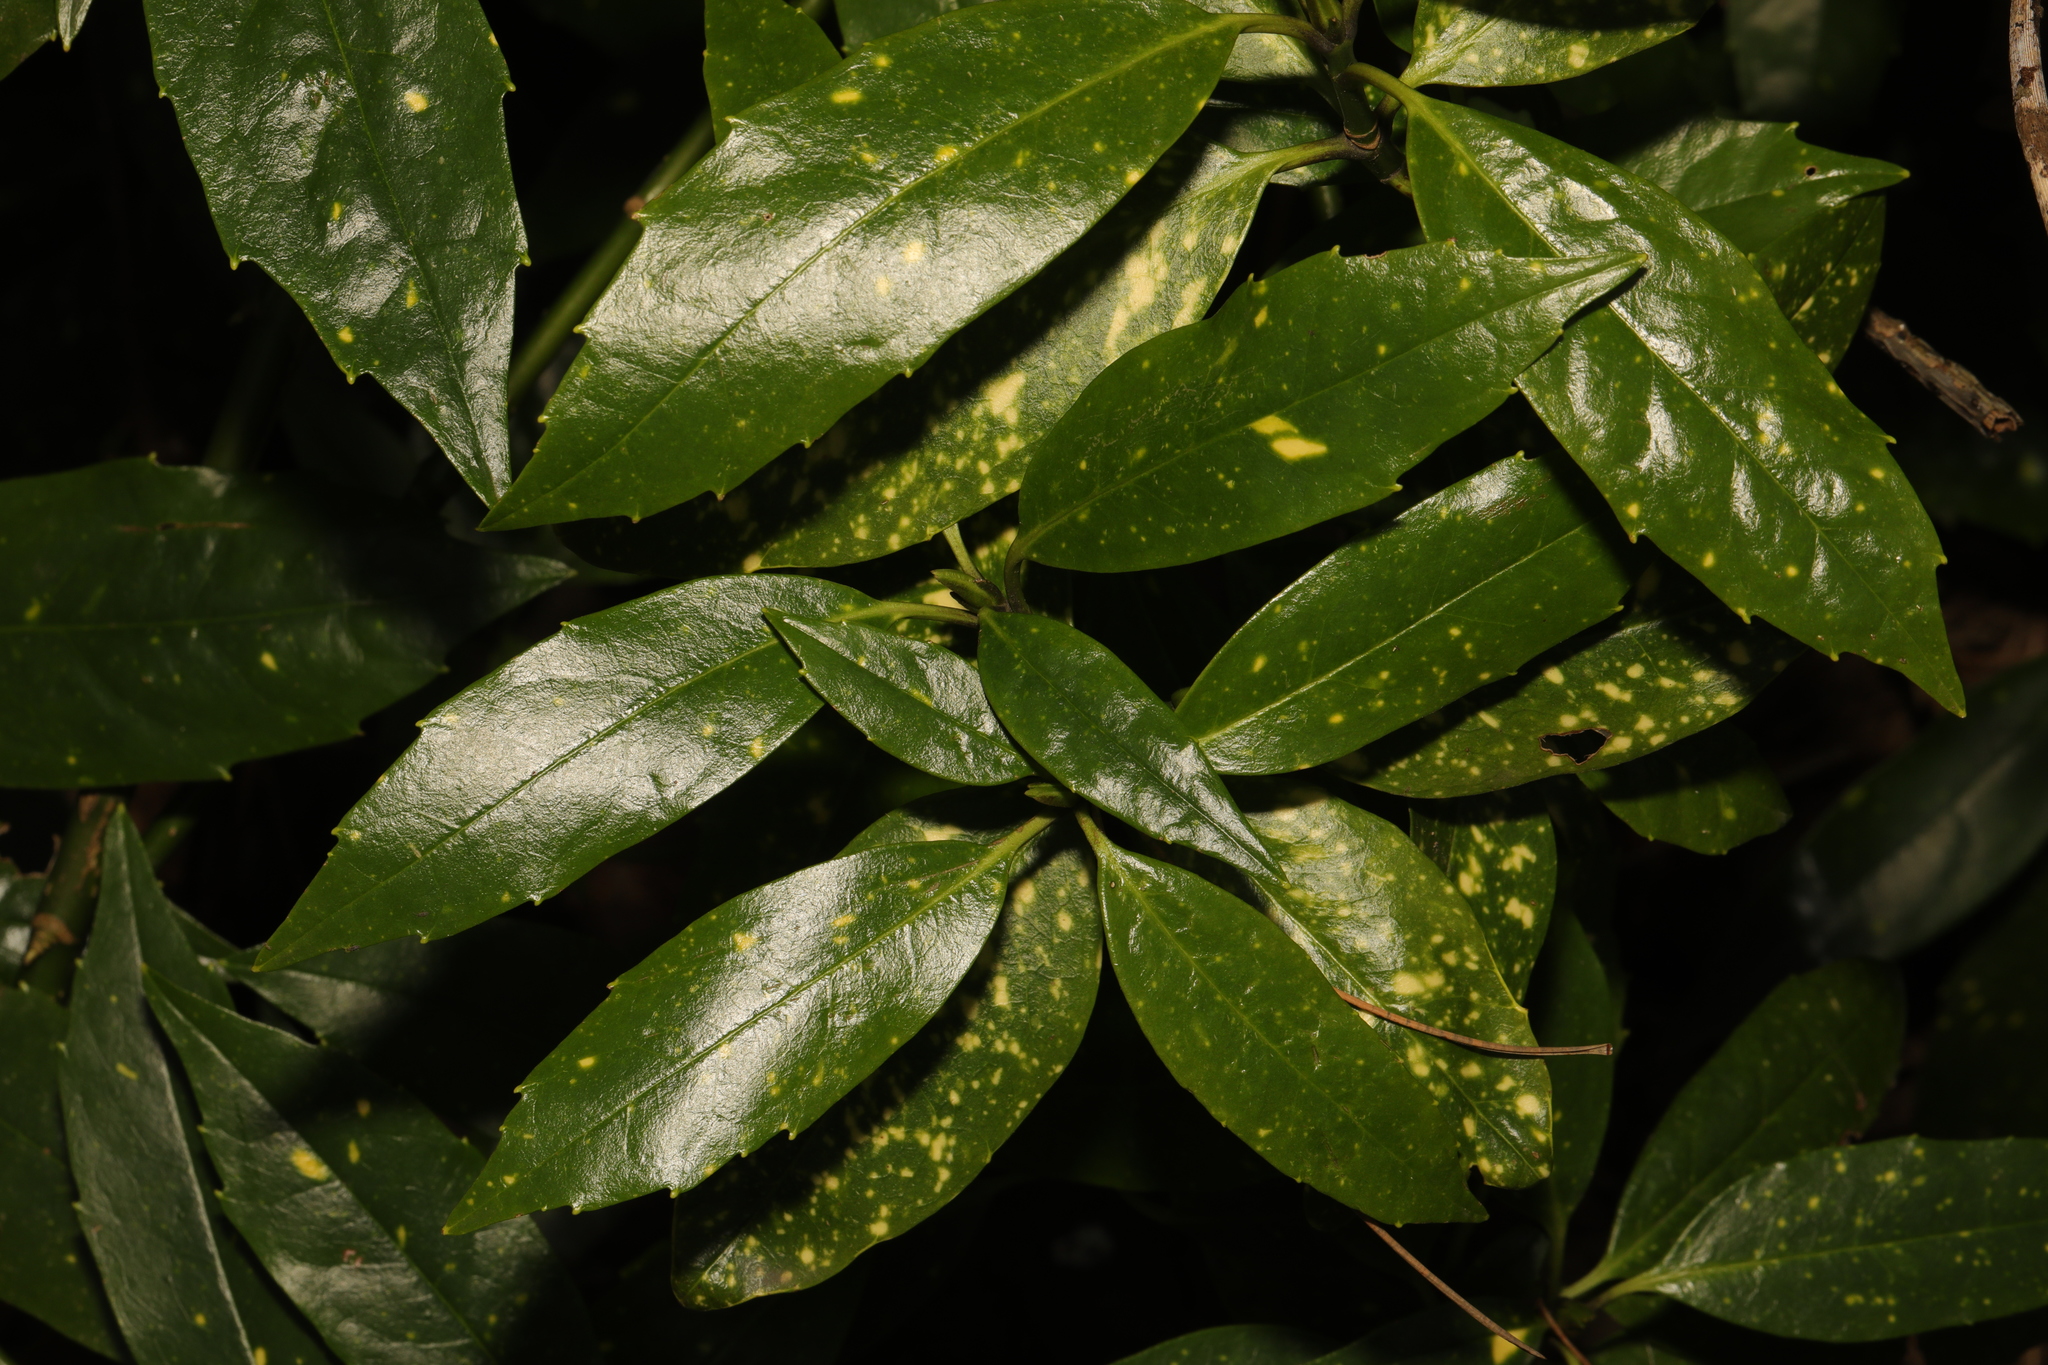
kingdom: Plantae
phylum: Tracheophyta
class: Magnoliopsida
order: Garryales
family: Garryaceae
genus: Aucuba
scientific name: Aucuba japonica
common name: Spotted-laurel
